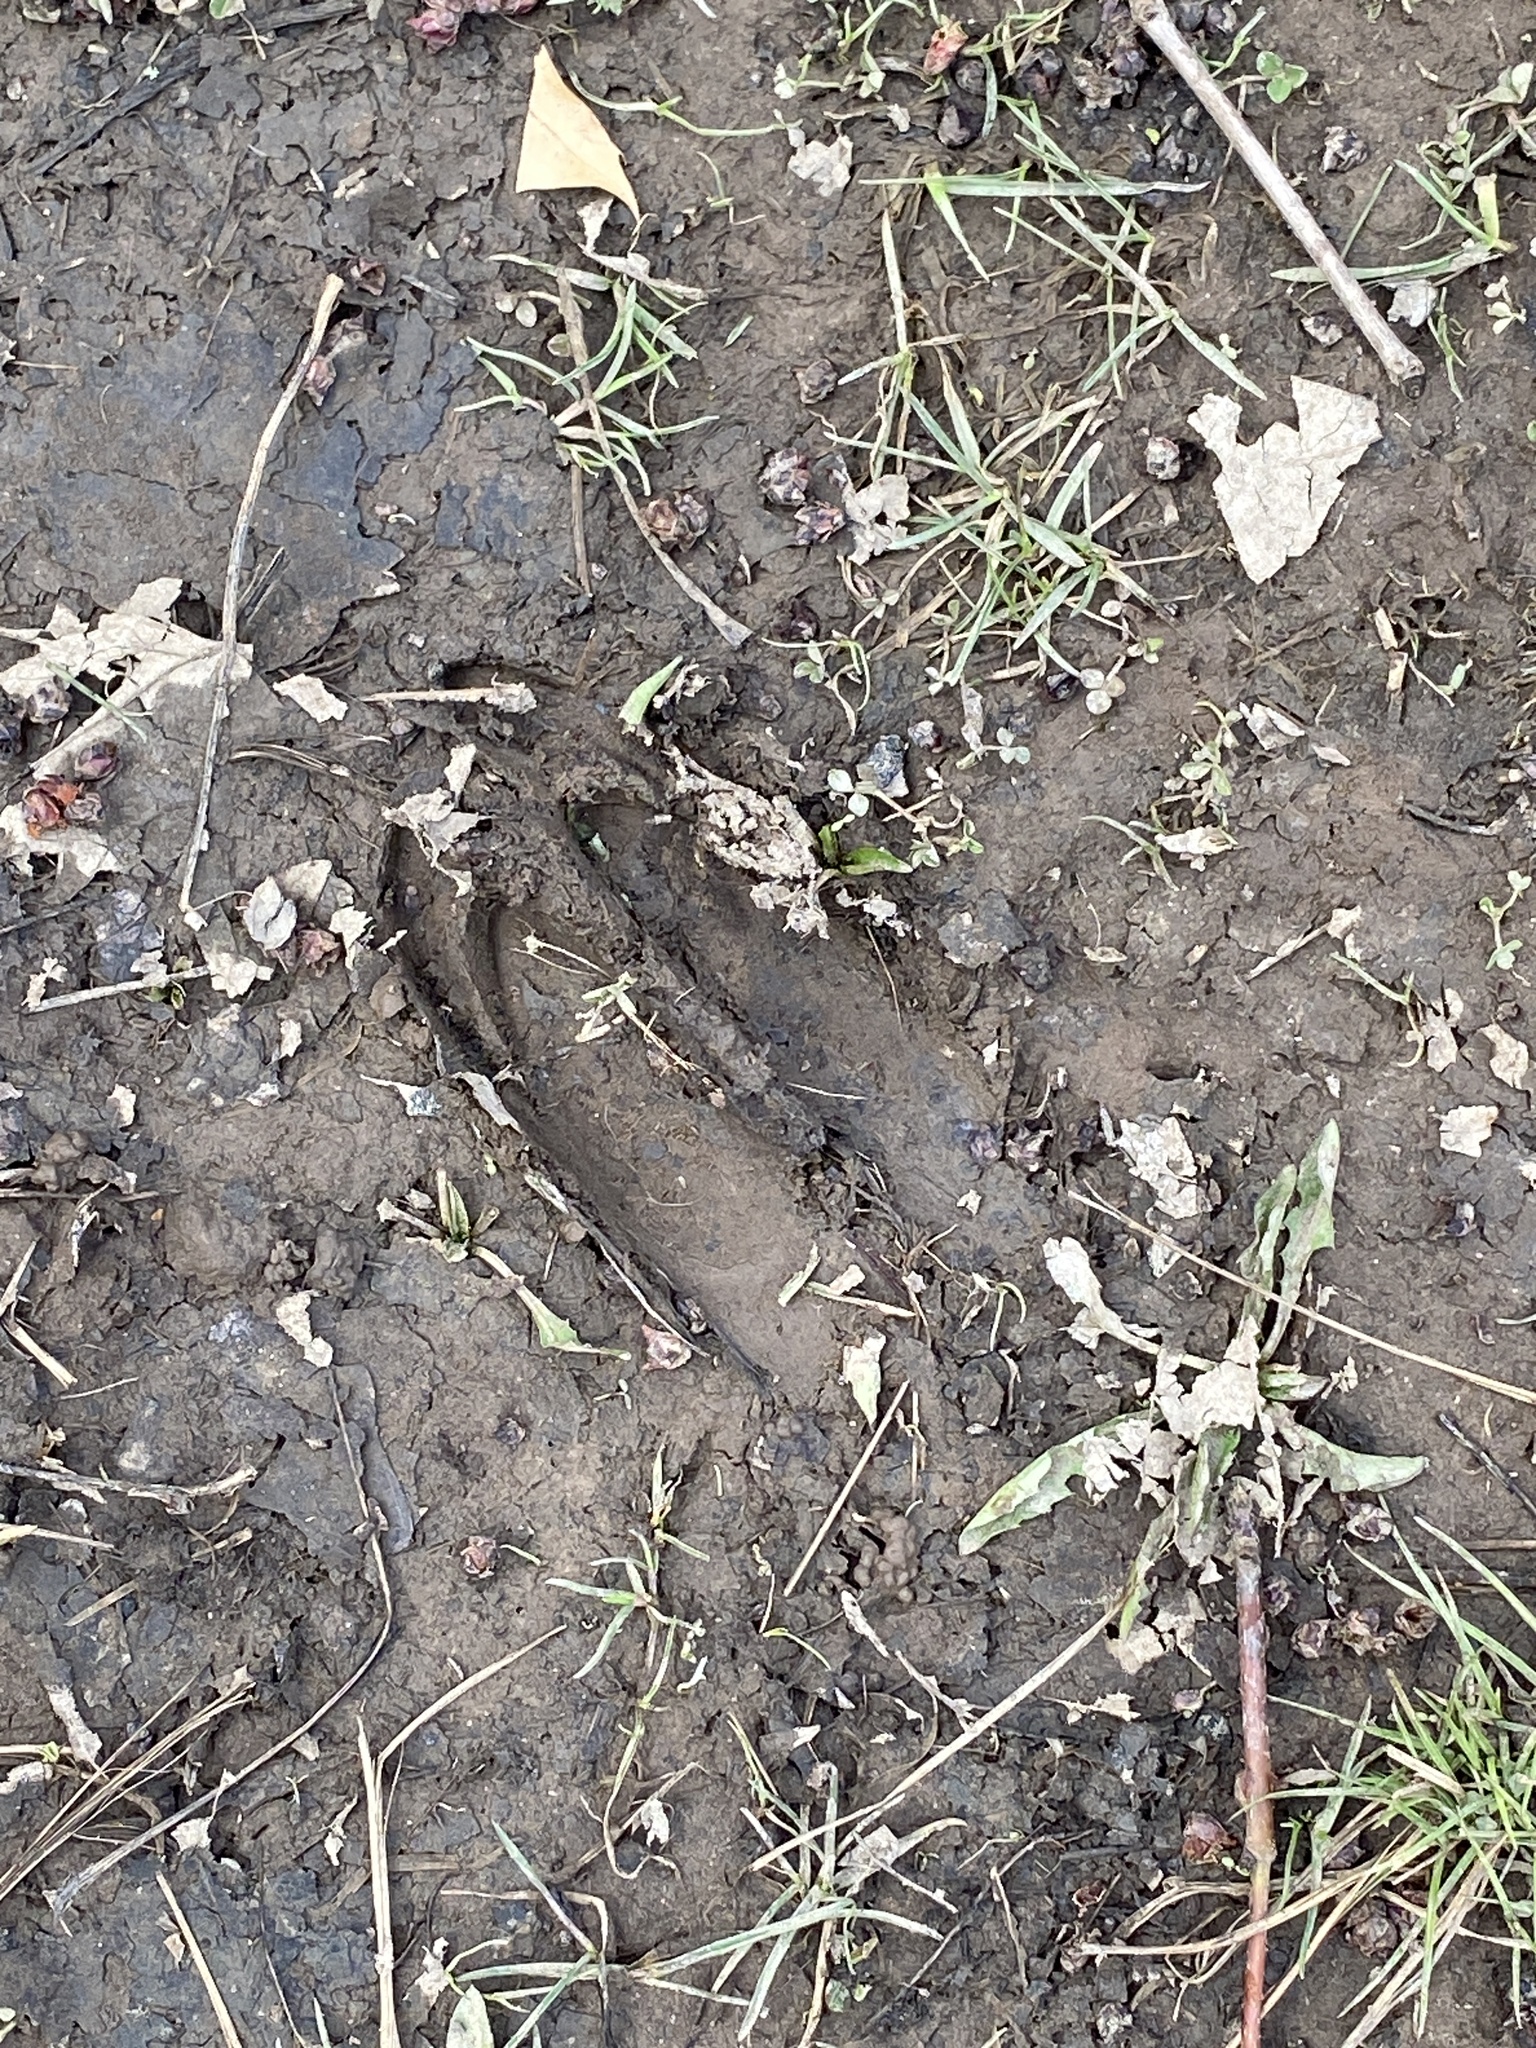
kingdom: Animalia
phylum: Chordata
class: Mammalia
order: Artiodactyla
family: Cervidae
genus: Odocoileus
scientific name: Odocoileus virginianus
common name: White-tailed deer
